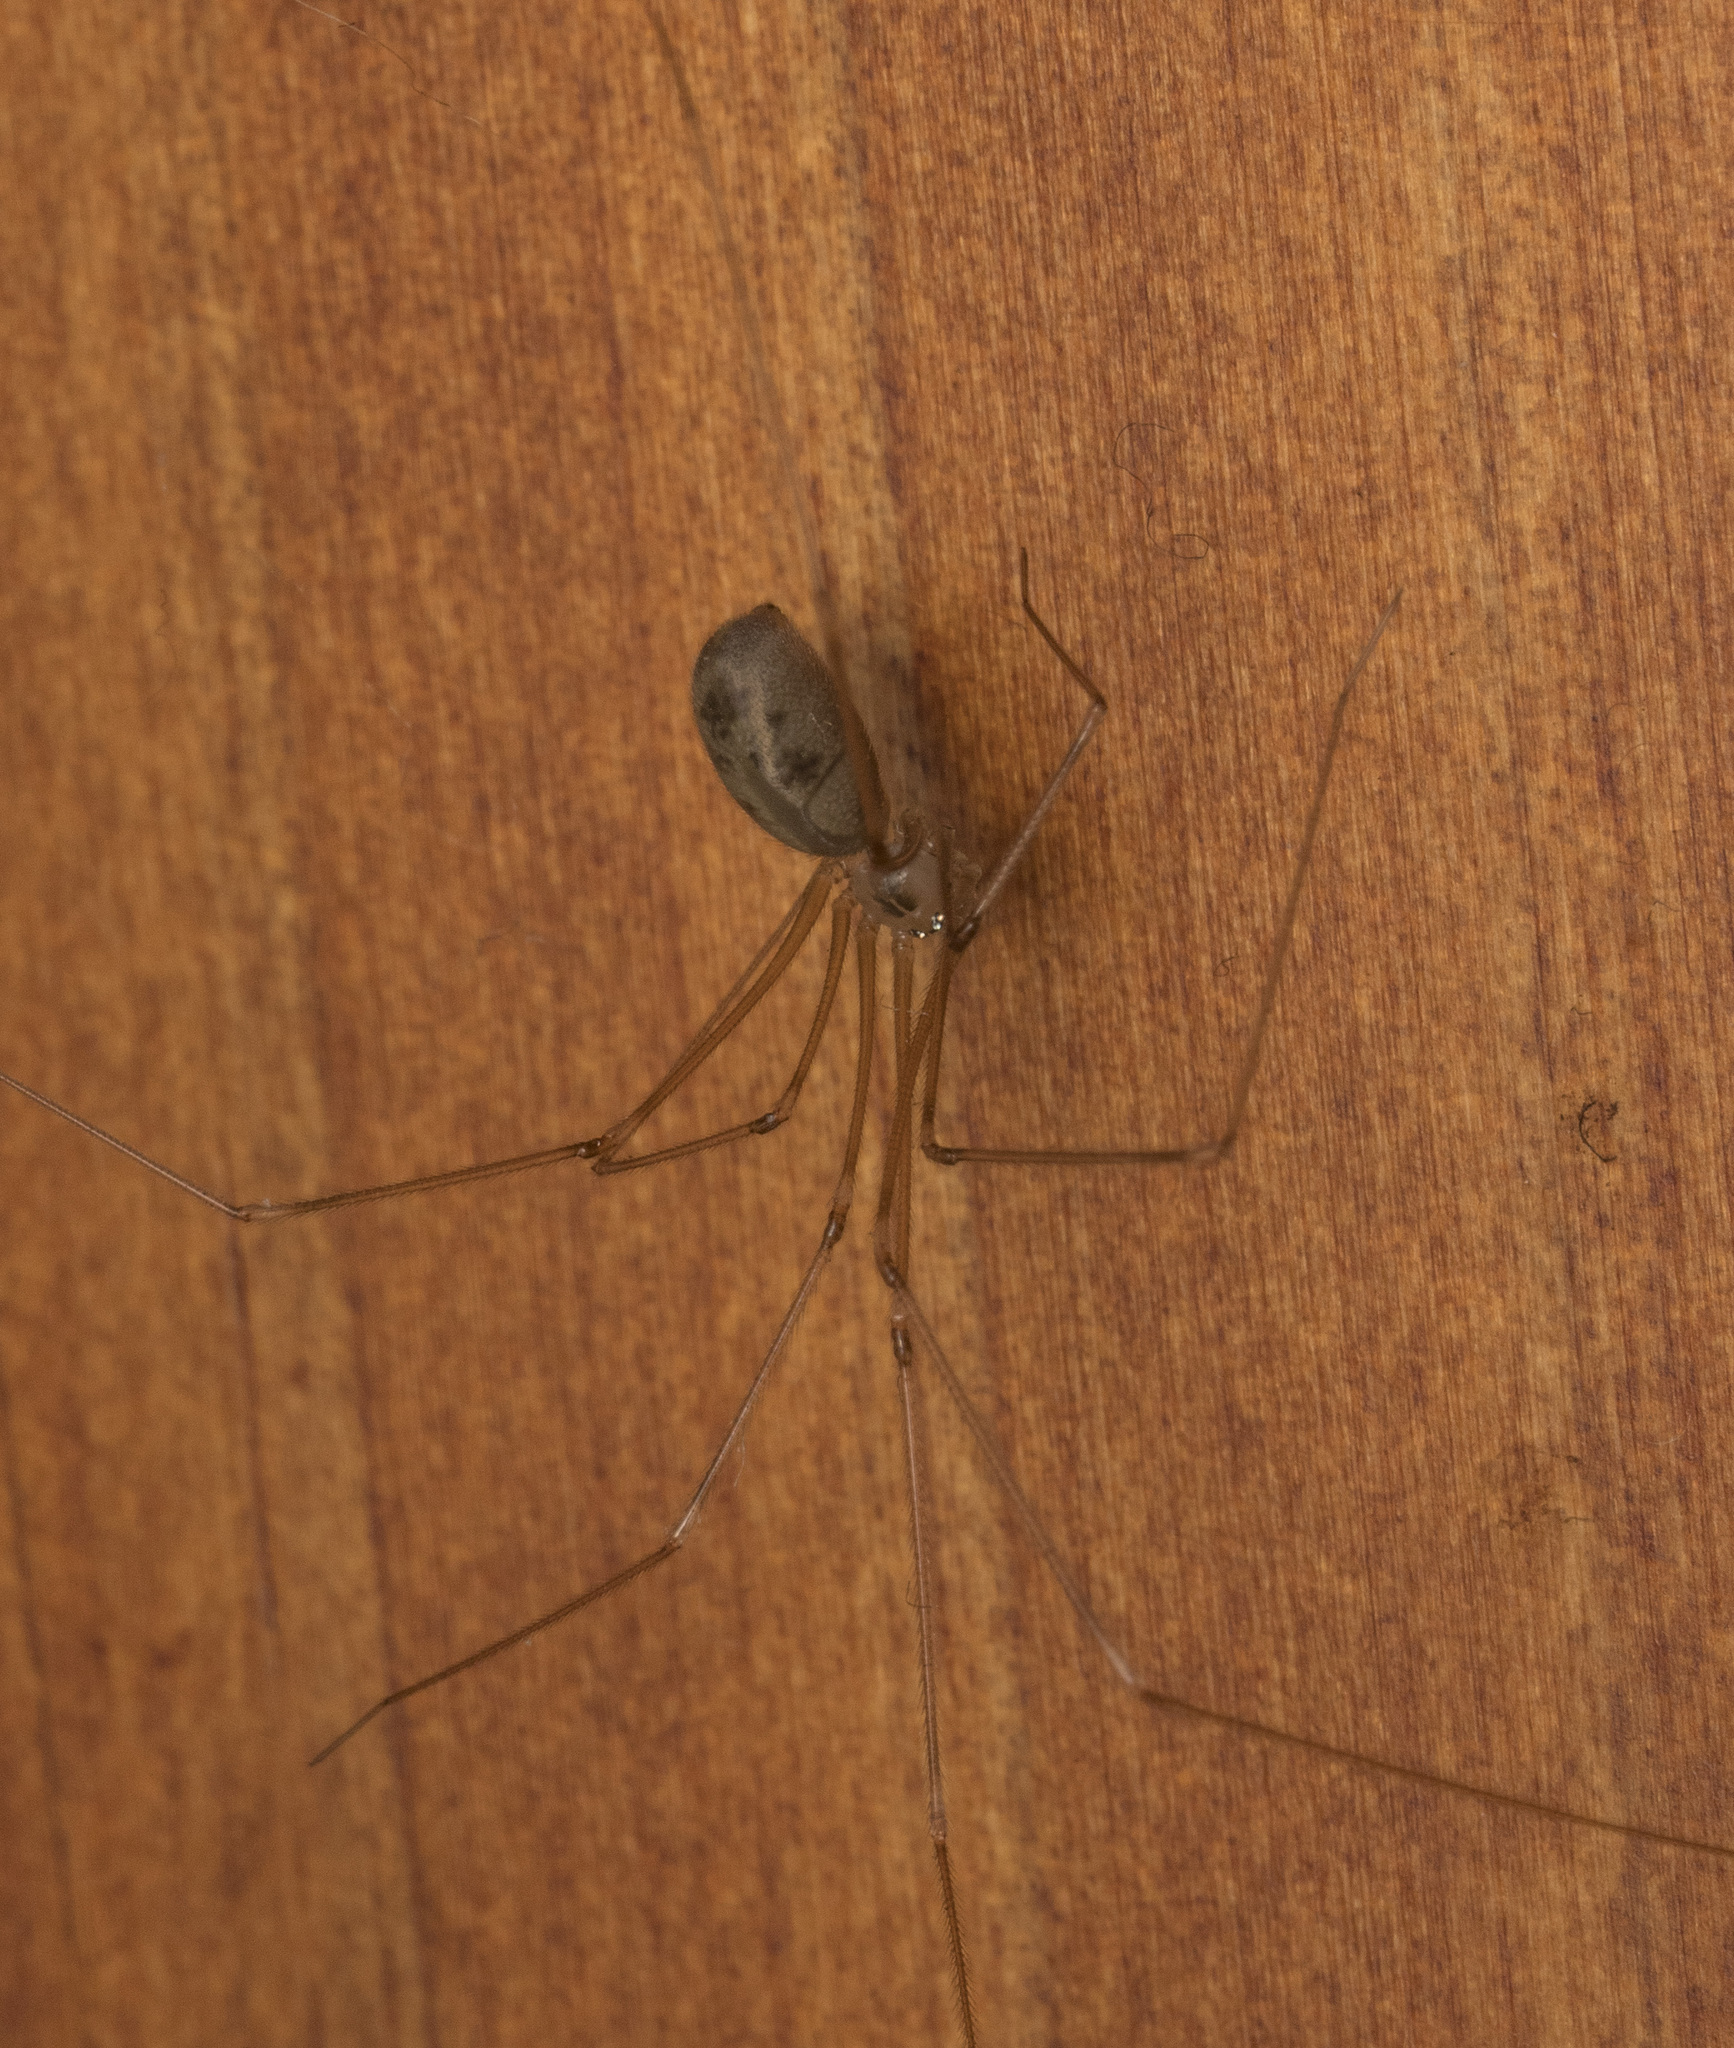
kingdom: Animalia
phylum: Arthropoda
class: Arachnida
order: Araneae
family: Pholcidae
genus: Pholcus
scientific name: Pholcus phalangioides
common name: Longbodied cellar spider
